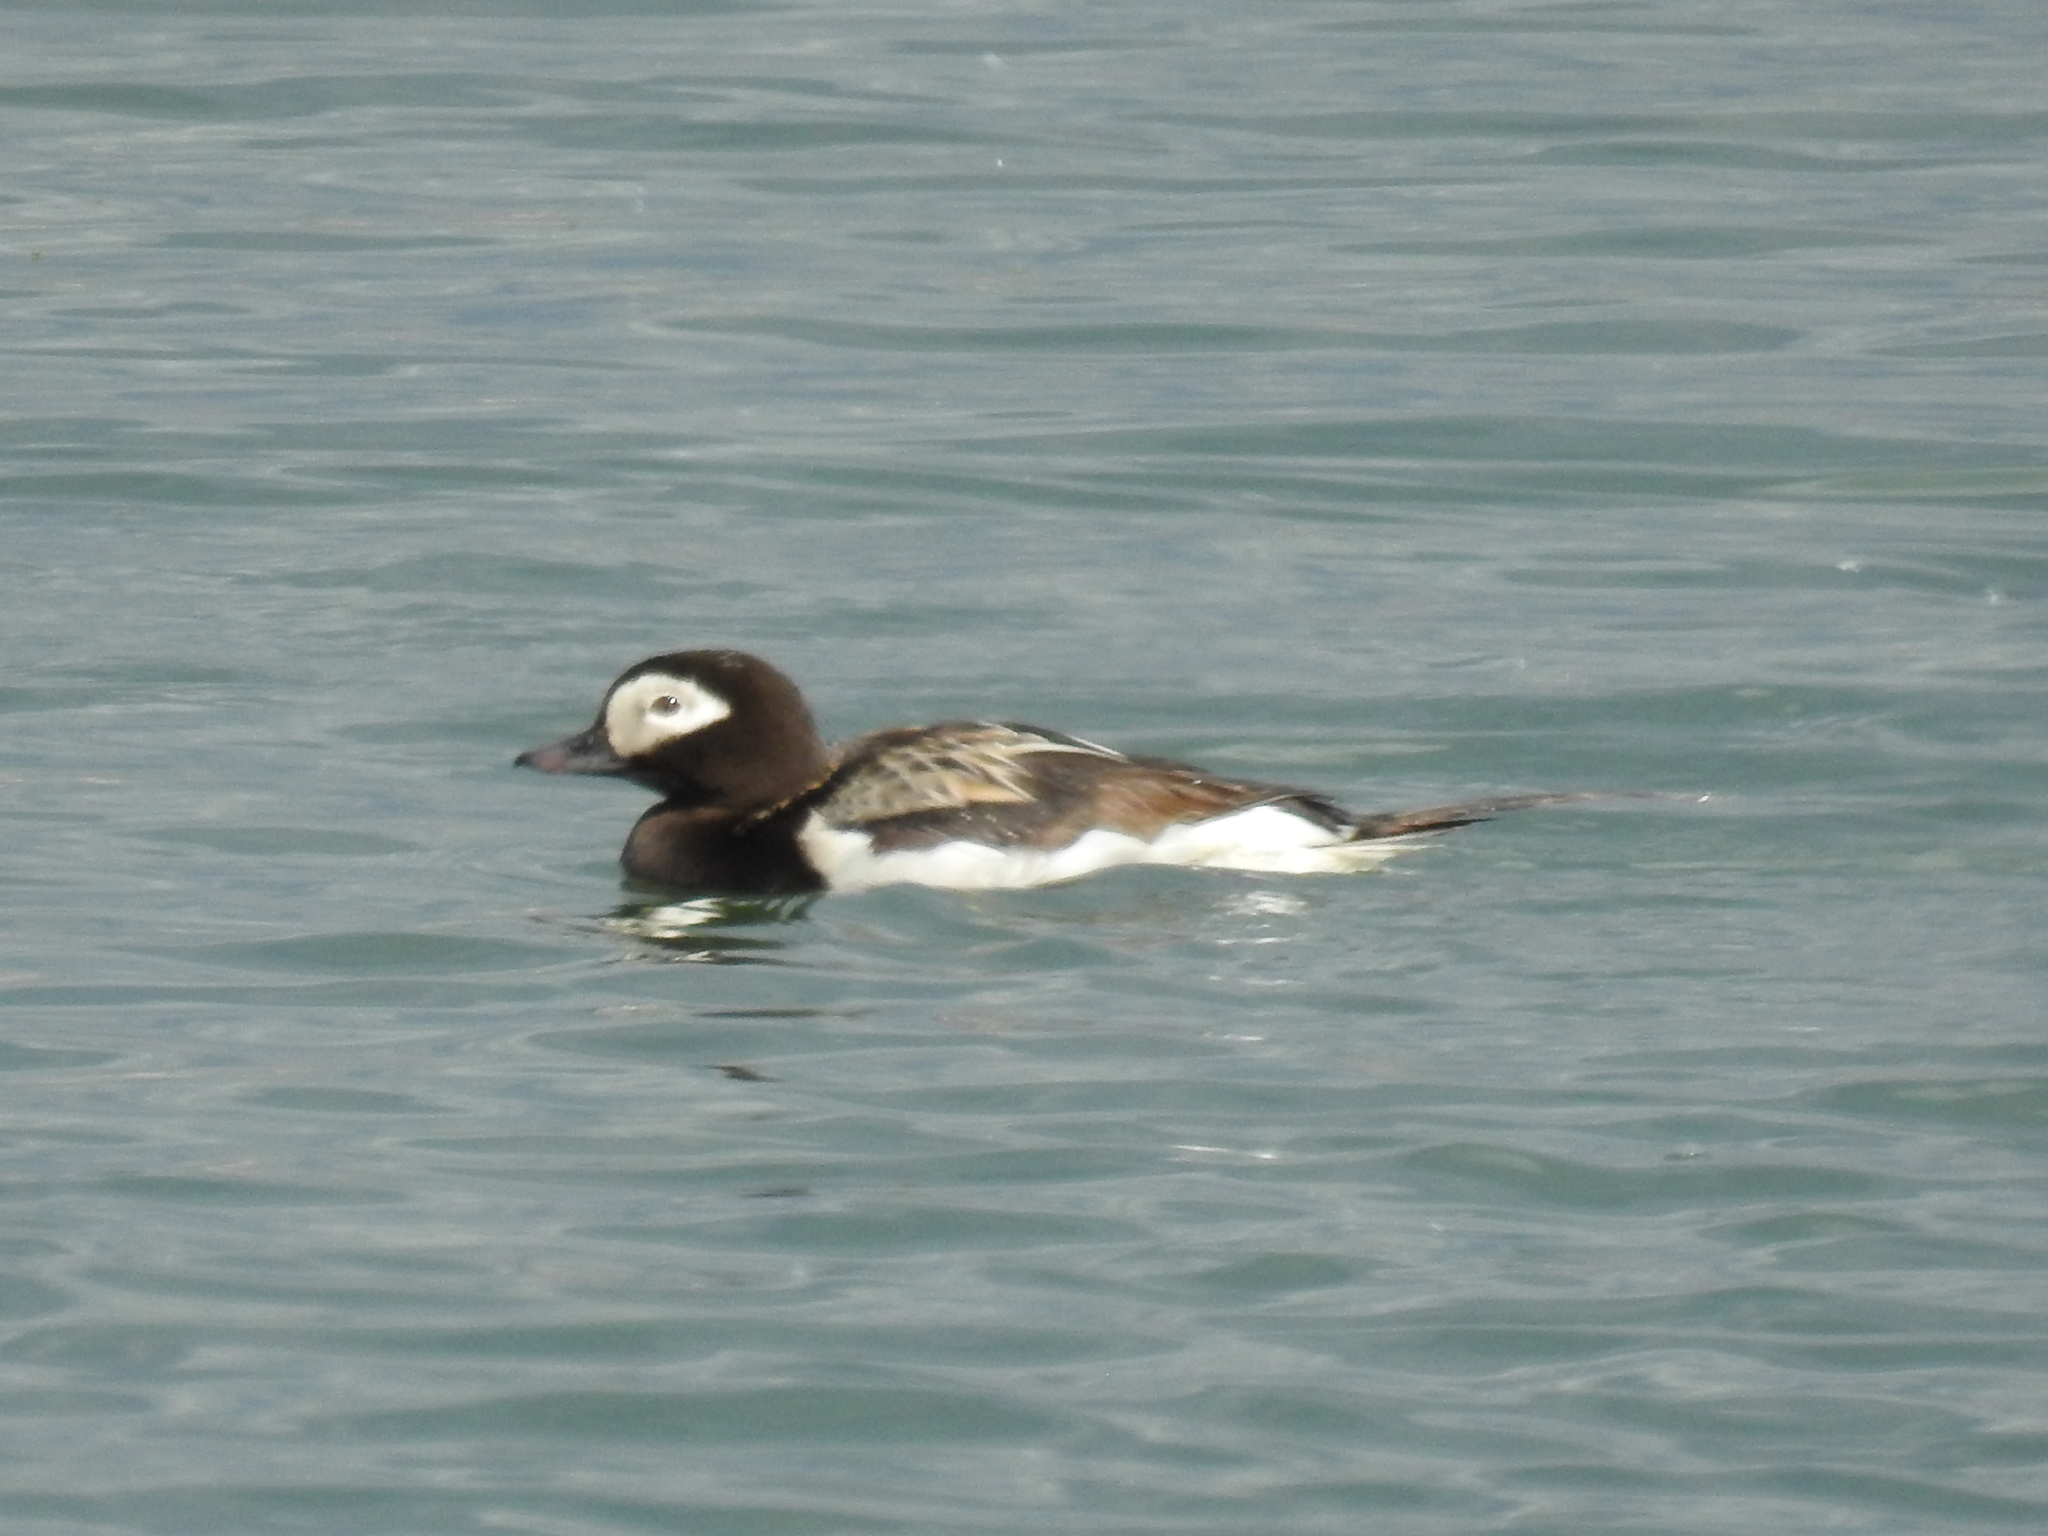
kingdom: Animalia
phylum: Chordata
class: Aves
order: Anseriformes
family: Anatidae
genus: Clangula
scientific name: Clangula hyemalis
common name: Long-tailed duck
